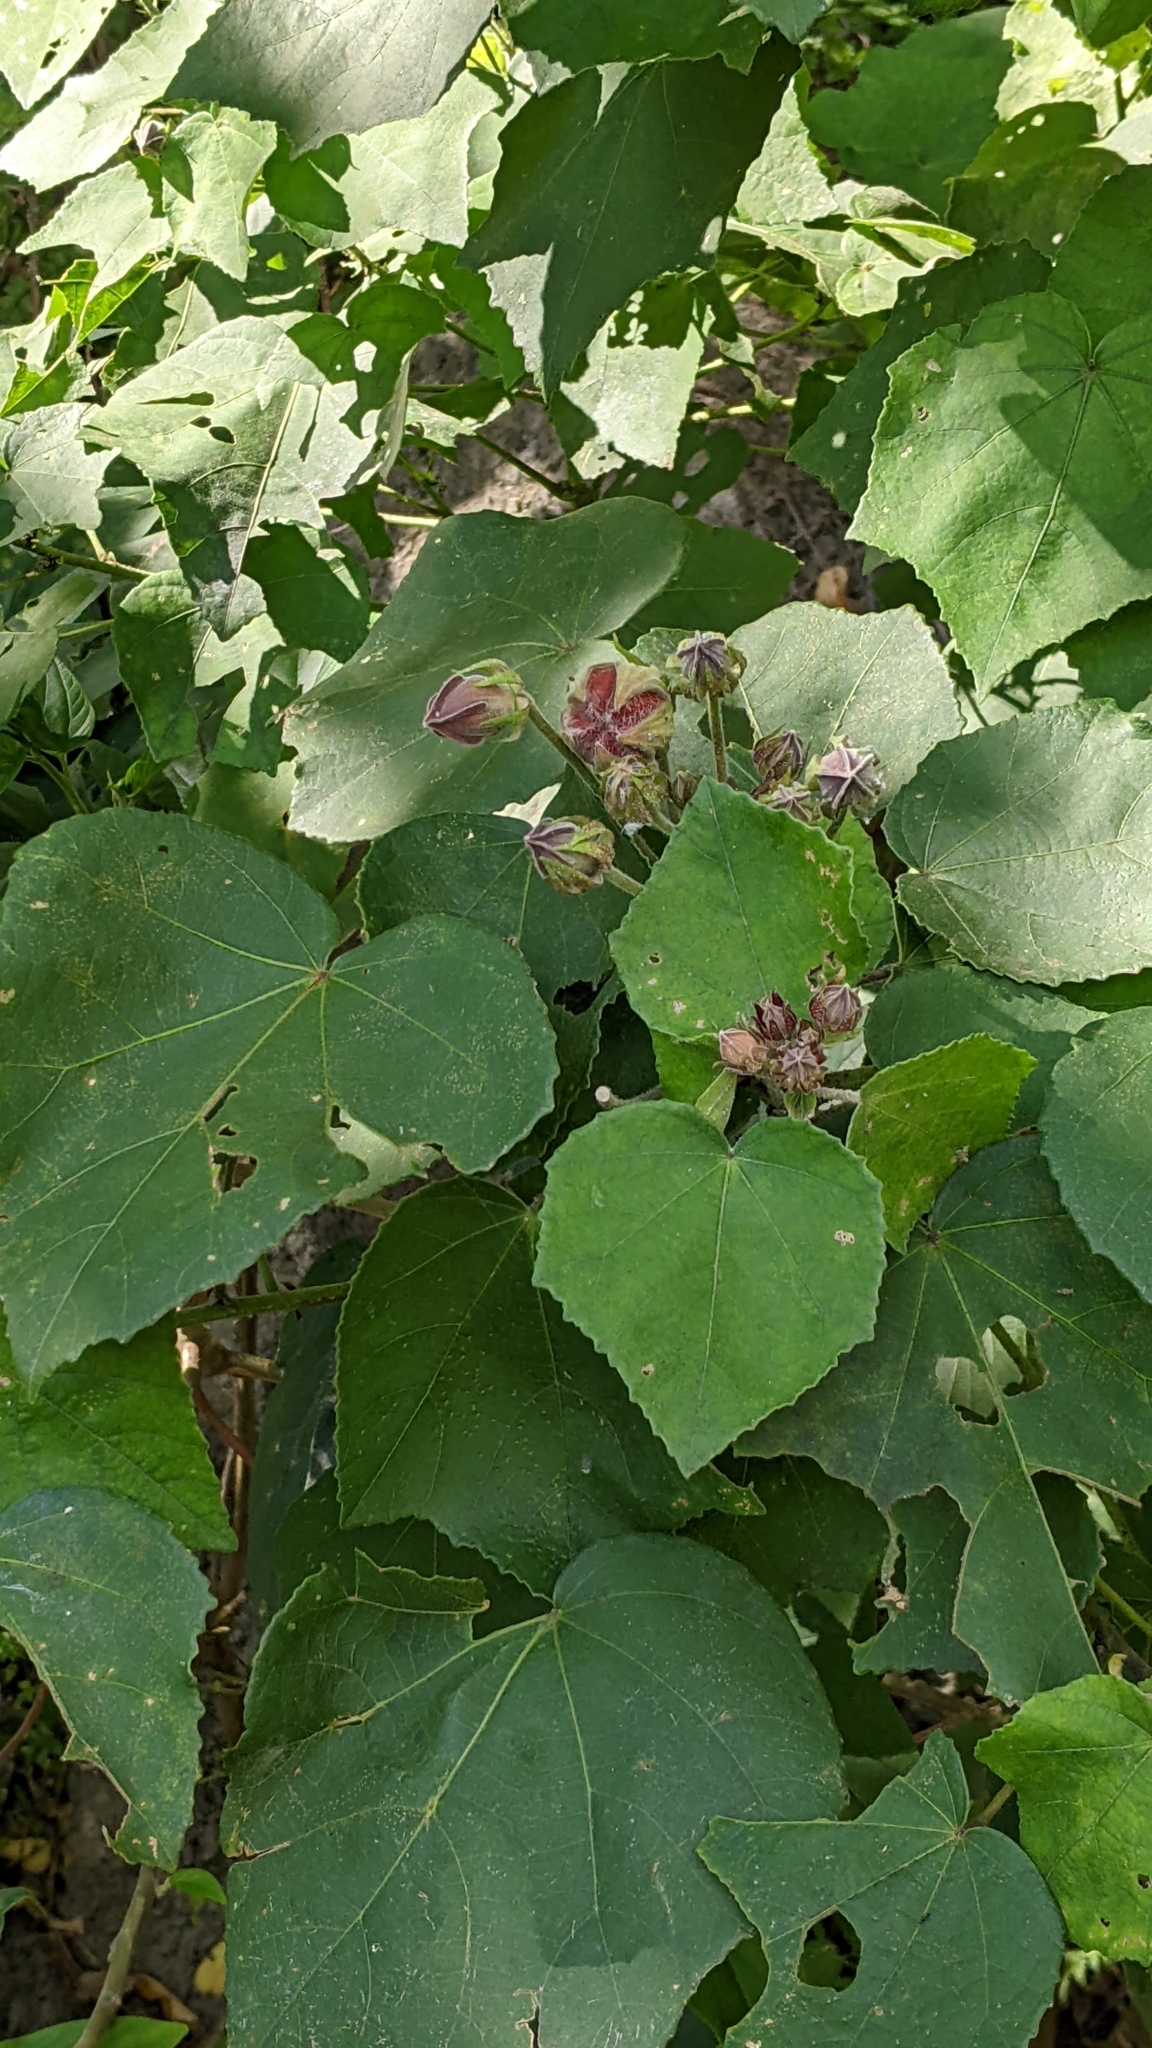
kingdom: Plantae
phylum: Tracheophyta
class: Magnoliopsida
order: Malvales
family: Malvaceae
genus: Hibiscus
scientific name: Hibiscus taiwanensis
